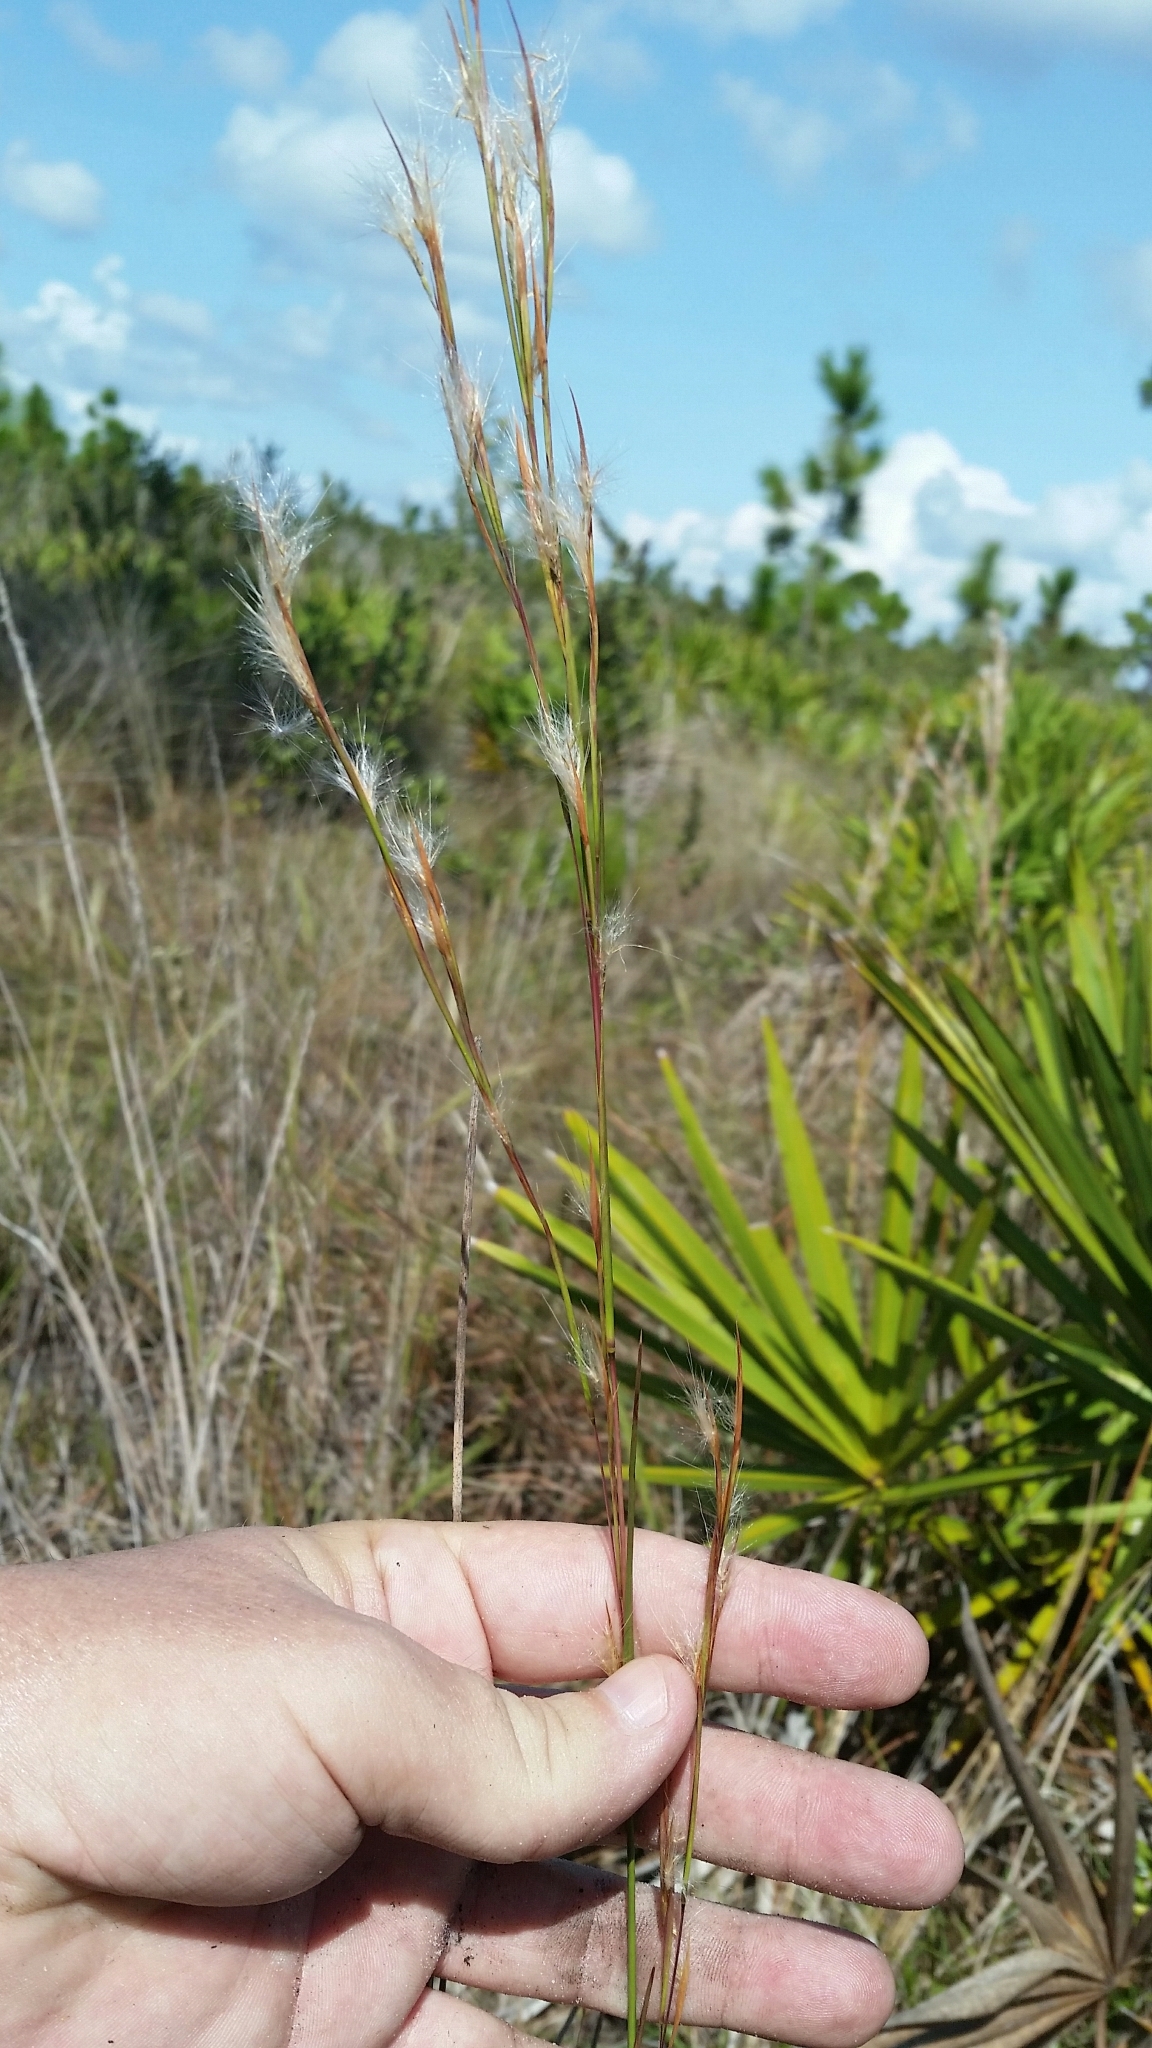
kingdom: Plantae
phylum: Tracheophyta
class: Liliopsida
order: Poales
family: Poaceae
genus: Andropogon
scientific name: Andropogon virginicus
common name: Broomsedge bluestem
